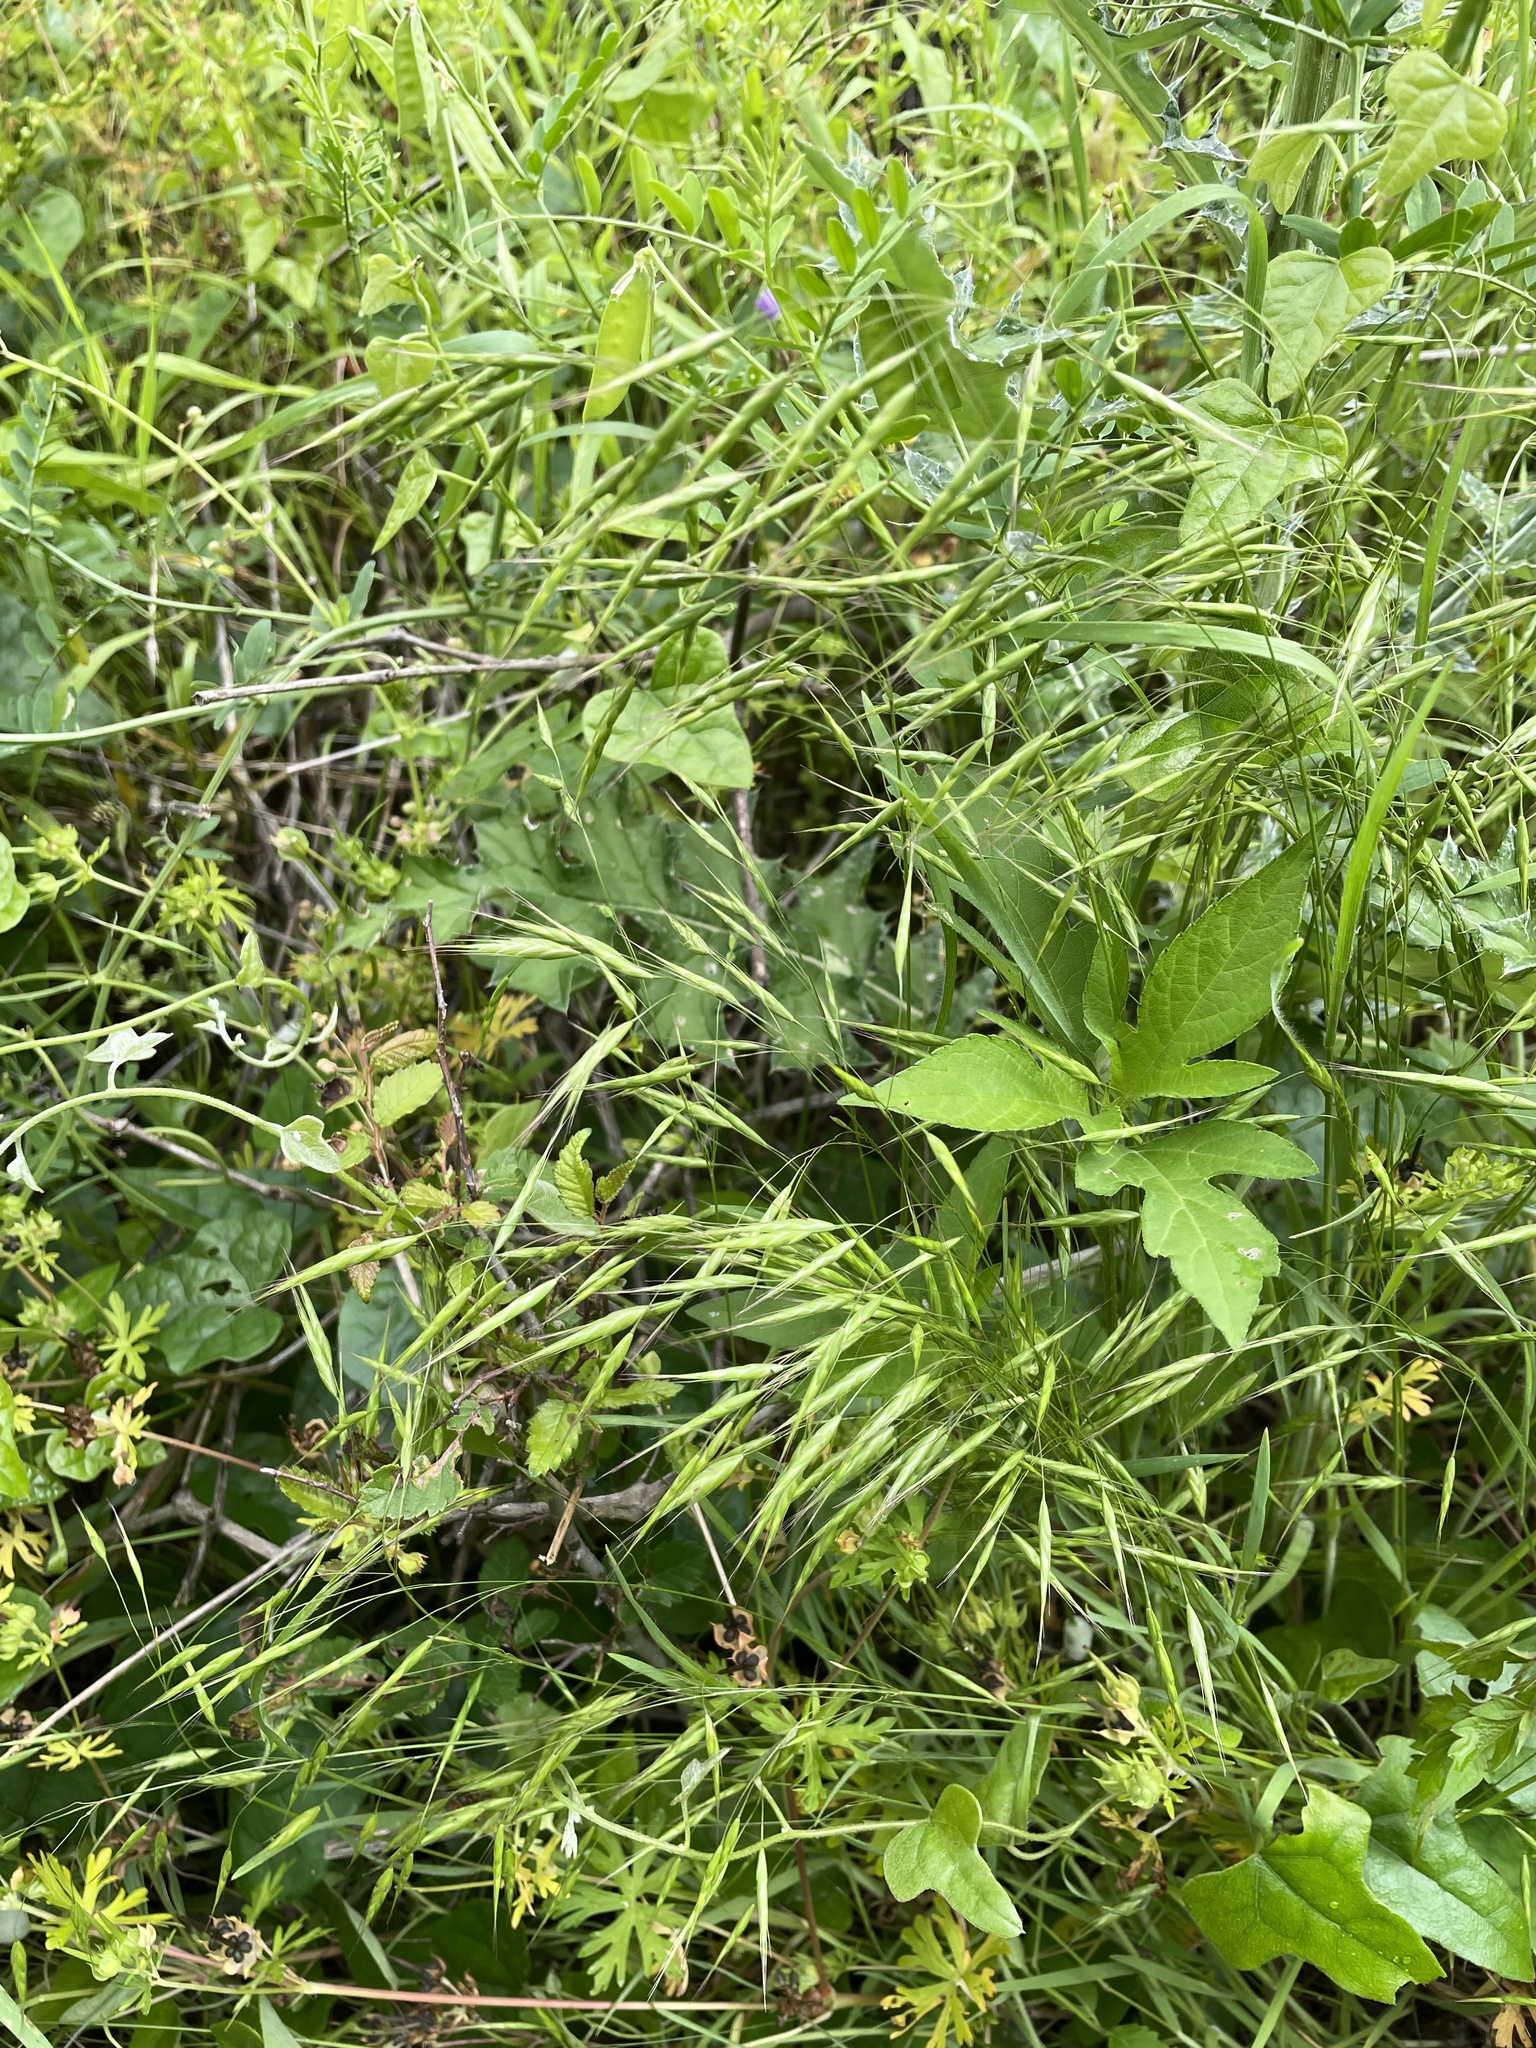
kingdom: Plantae
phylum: Tracheophyta
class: Liliopsida
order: Poales
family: Poaceae
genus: Bromus
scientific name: Bromus japonicus
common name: Japanese brome
